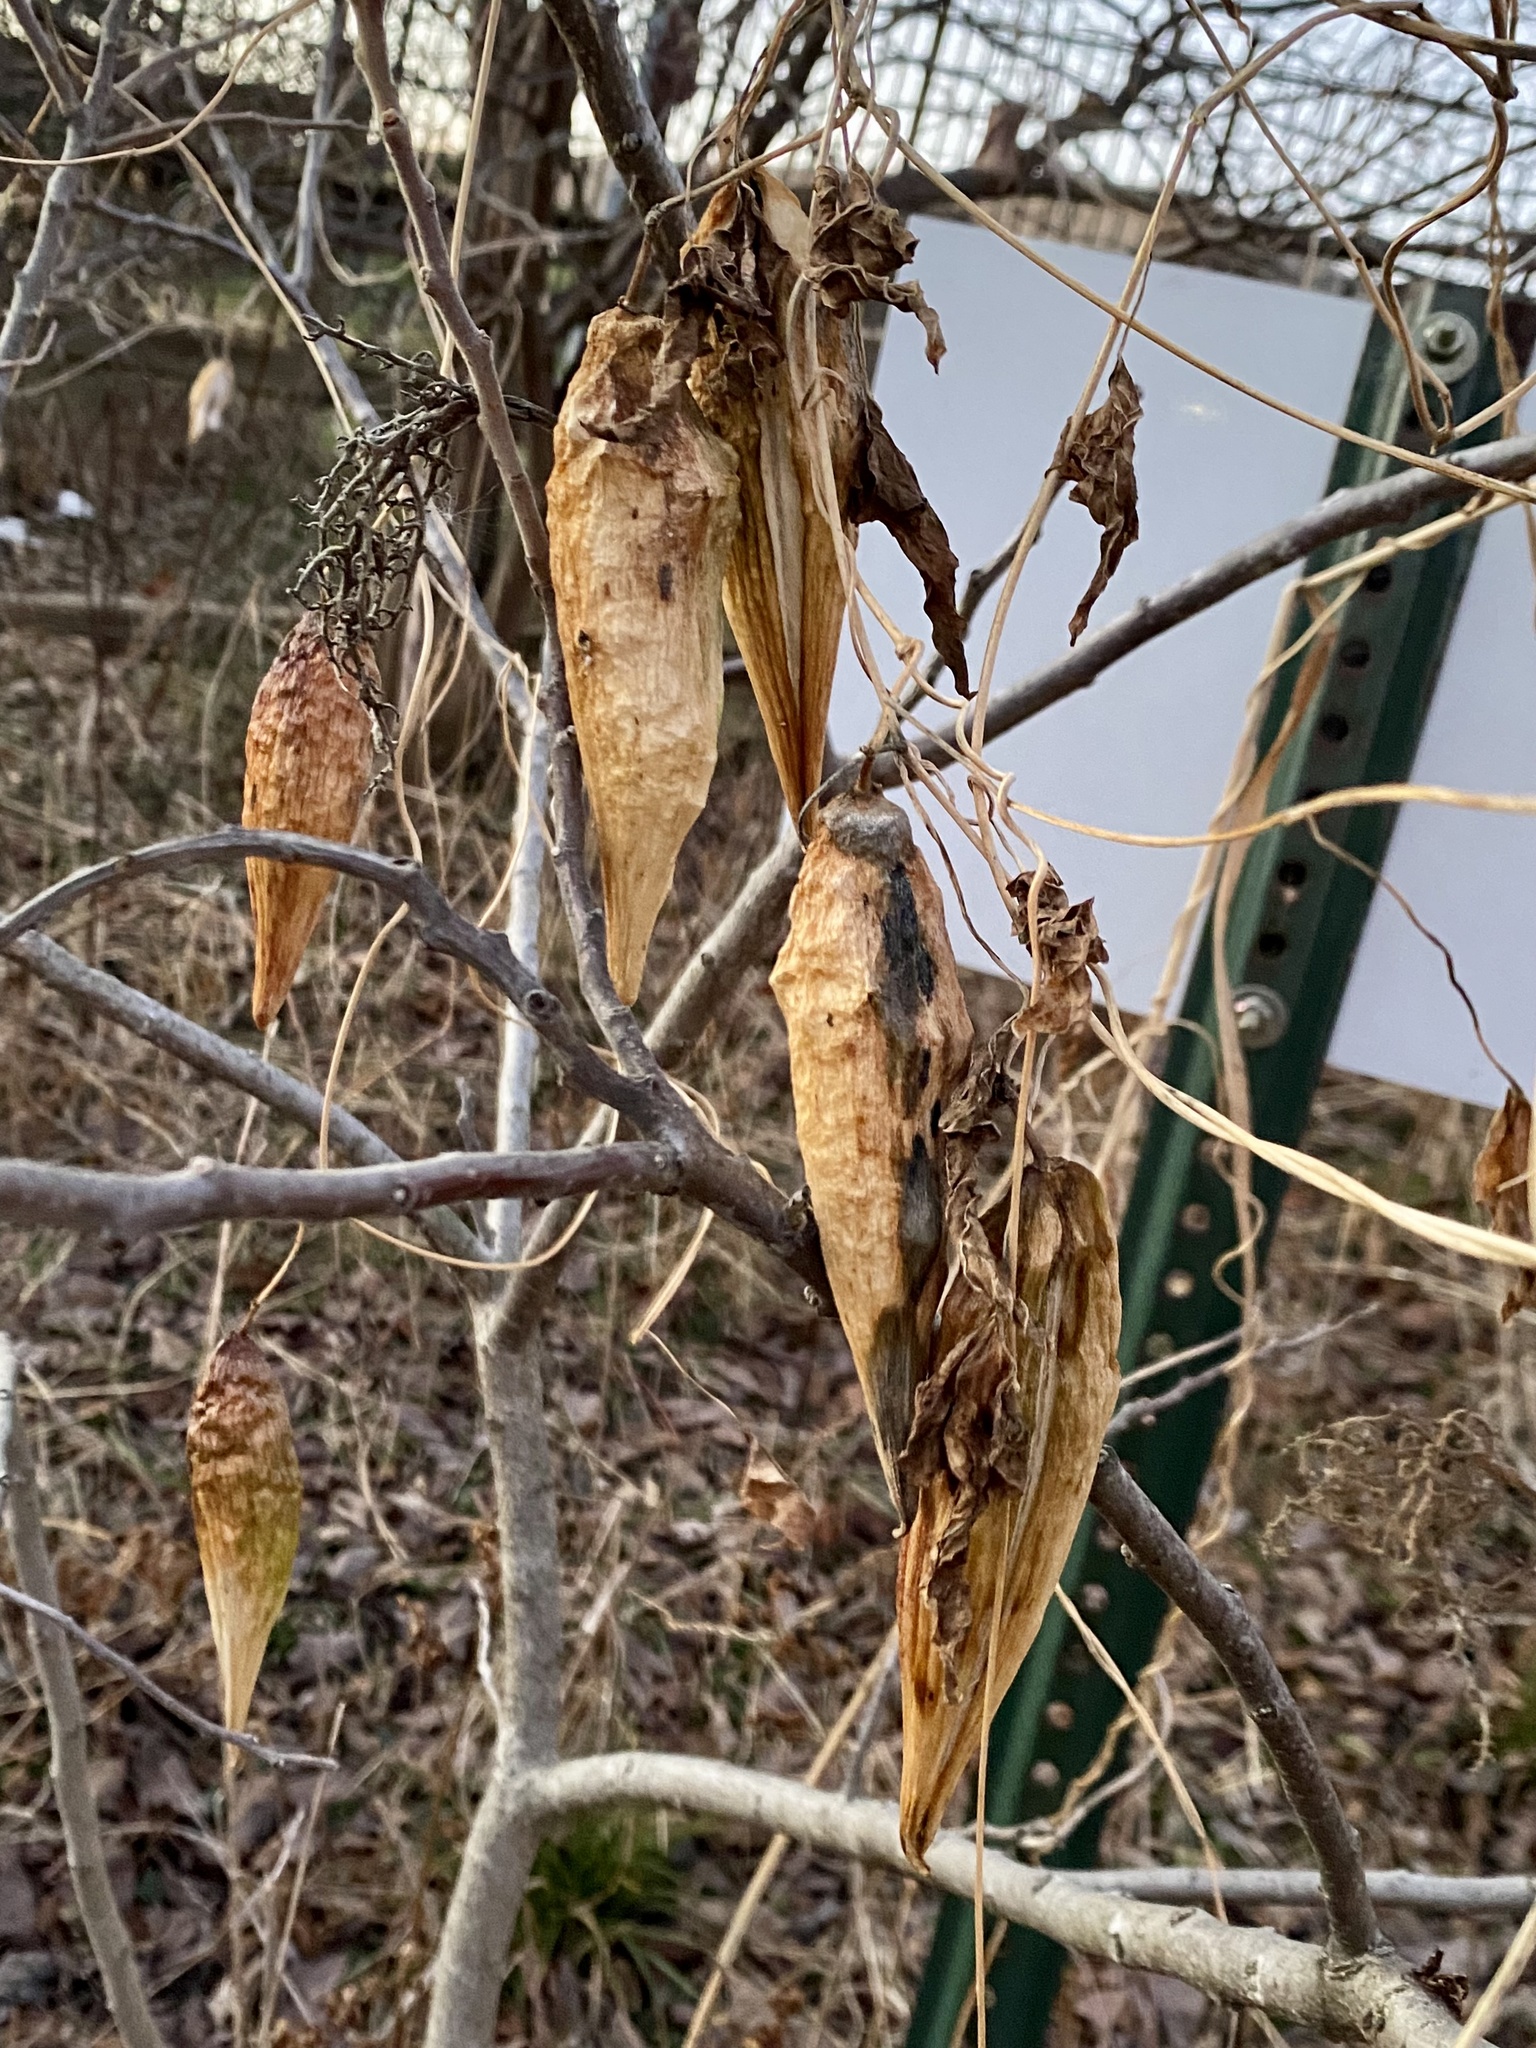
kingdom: Plantae
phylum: Tracheophyta
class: Magnoliopsida
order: Gentianales
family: Apocynaceae
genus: Cynanchum
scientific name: Cynanchum laeve
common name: Sandvine
